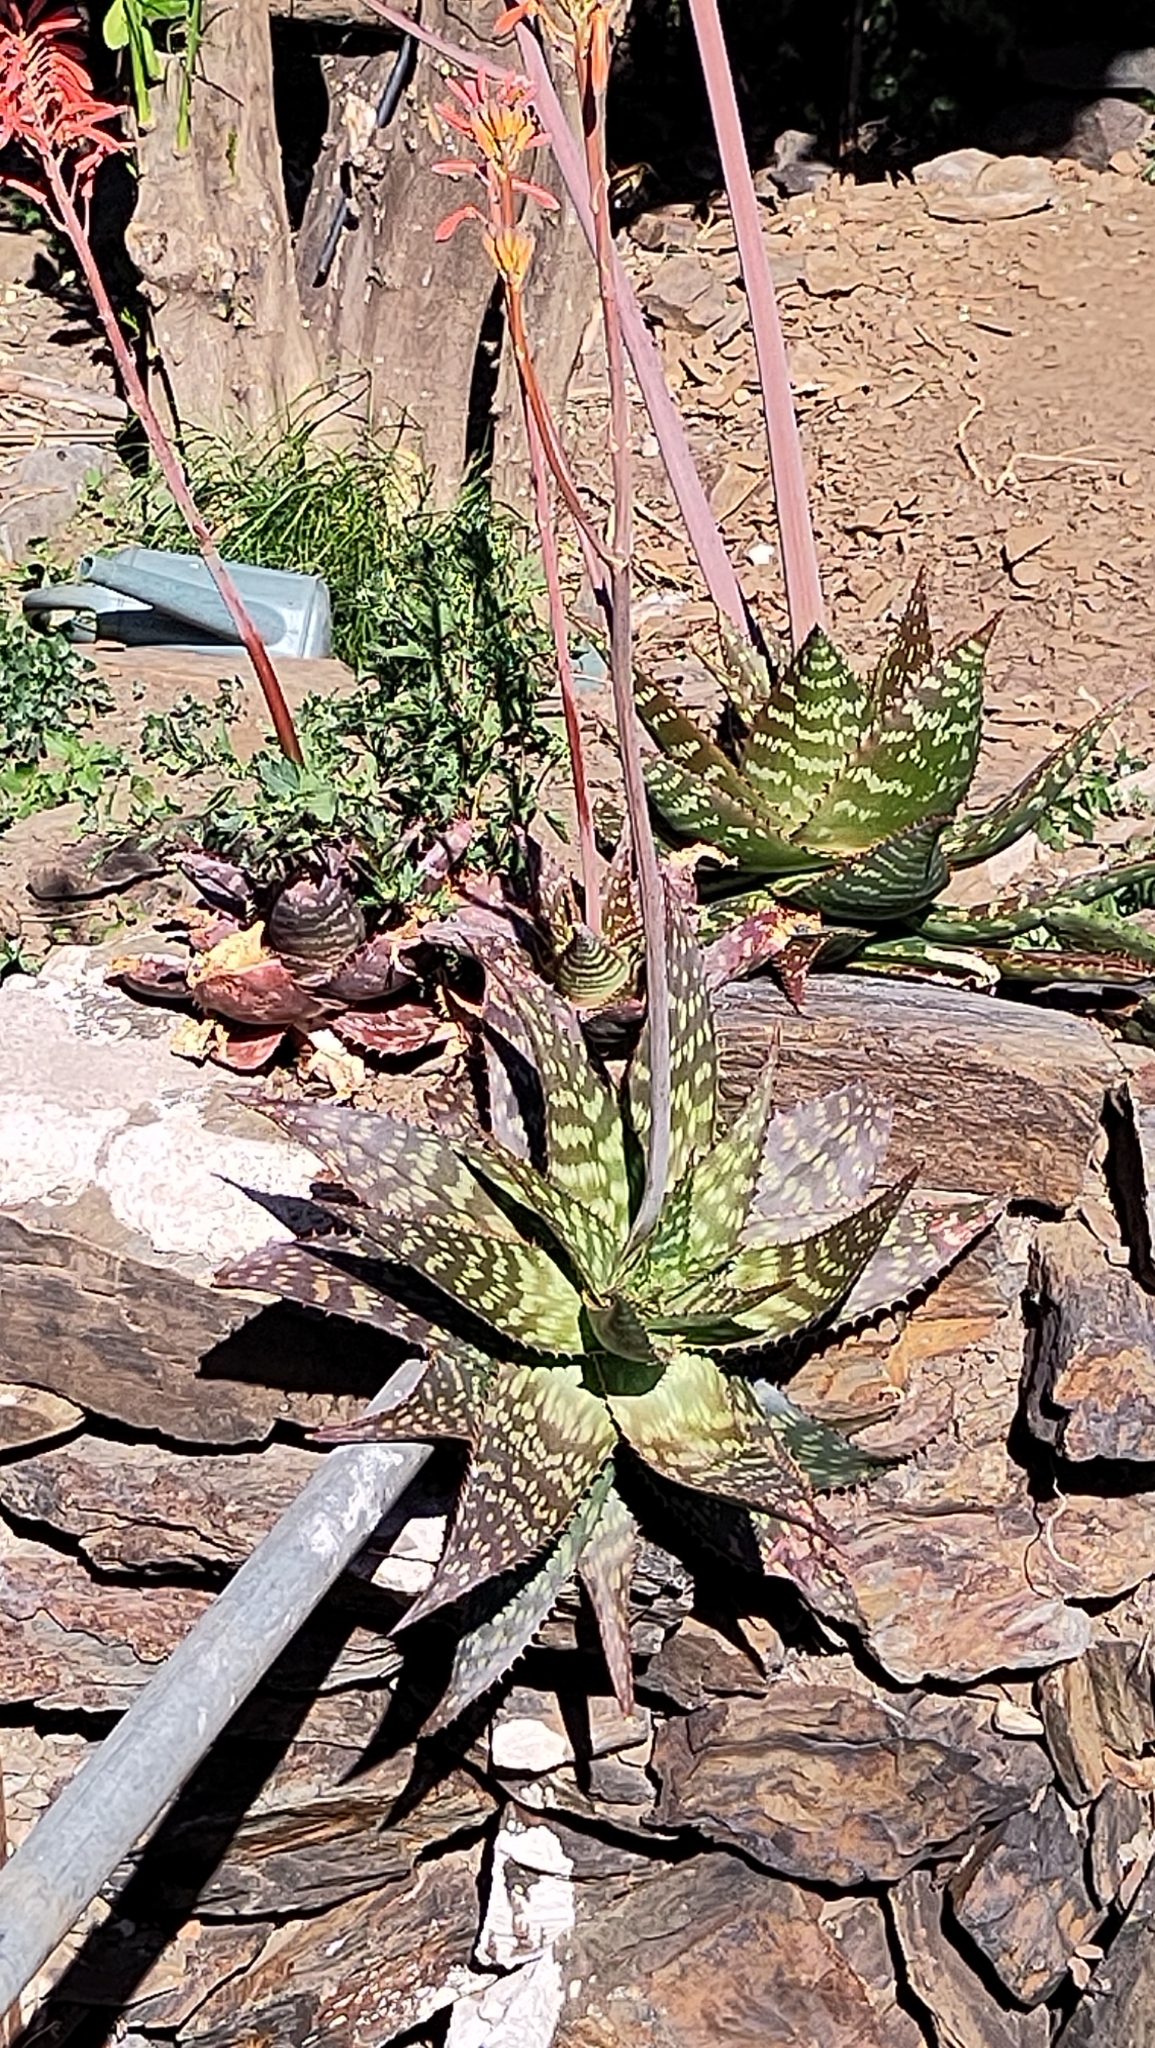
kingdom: Plantae
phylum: Tracheophyta
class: Liliopsida
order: Asparagales
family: Asphodelaceae
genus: Aloe
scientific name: Aloe maculata
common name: Broadleaf aloe
